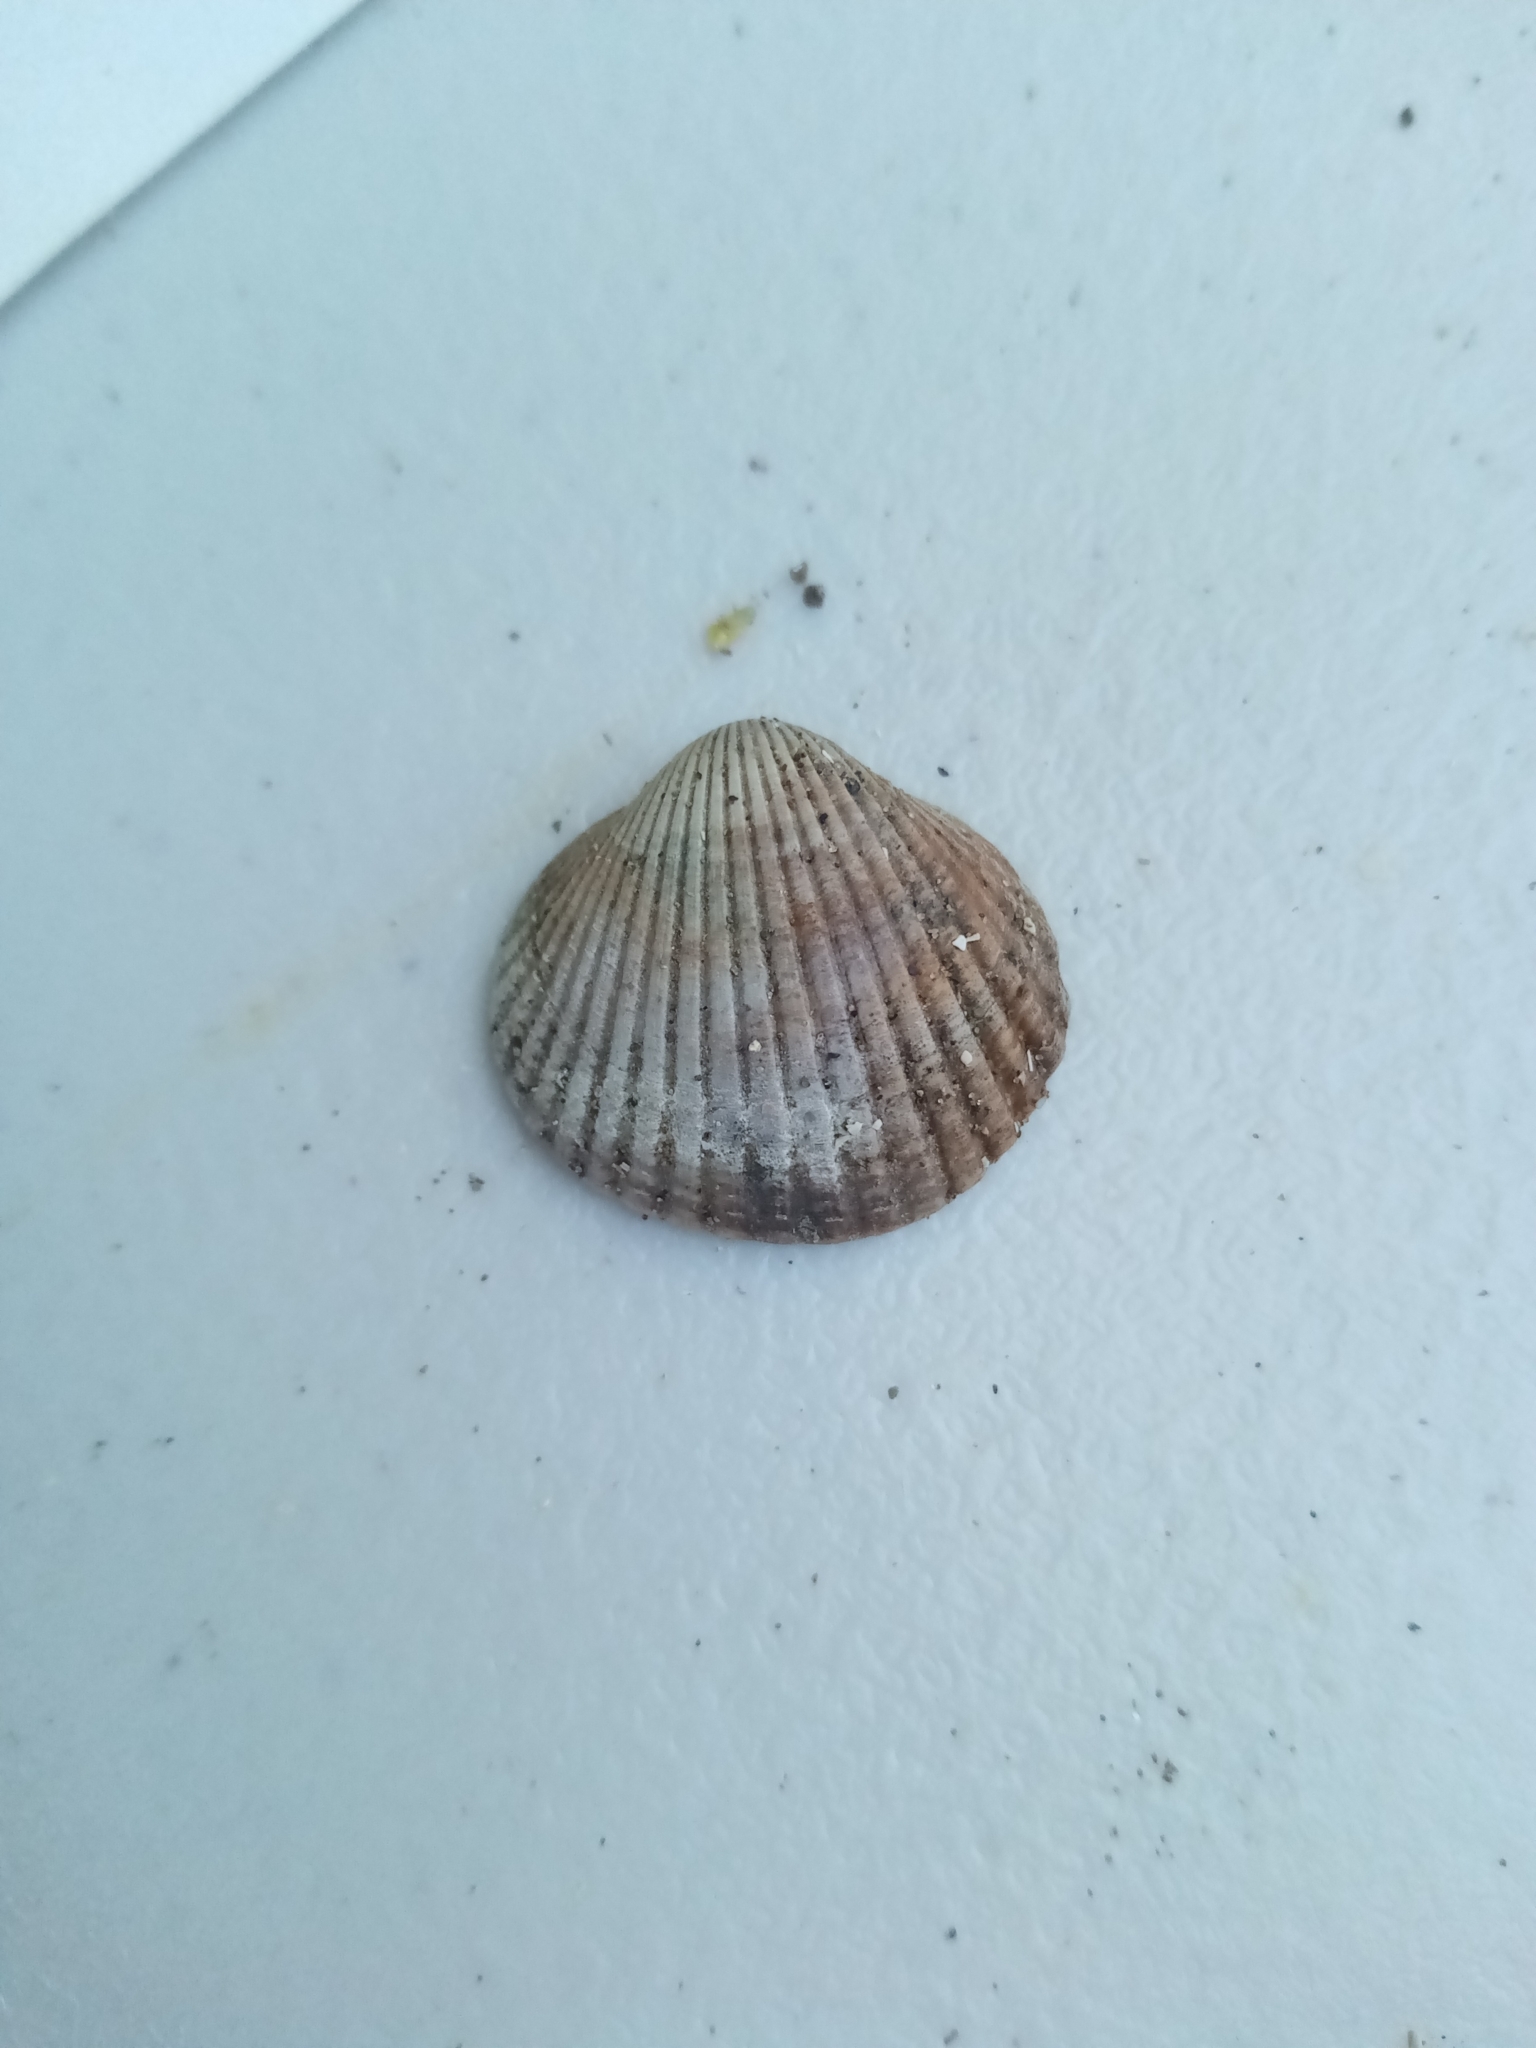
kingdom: Animalia
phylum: Mollusca
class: Bivalvia
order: Cardiida
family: Cardiidae
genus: Cerastoderma
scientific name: Cerastoderma edule
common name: Common cockle
